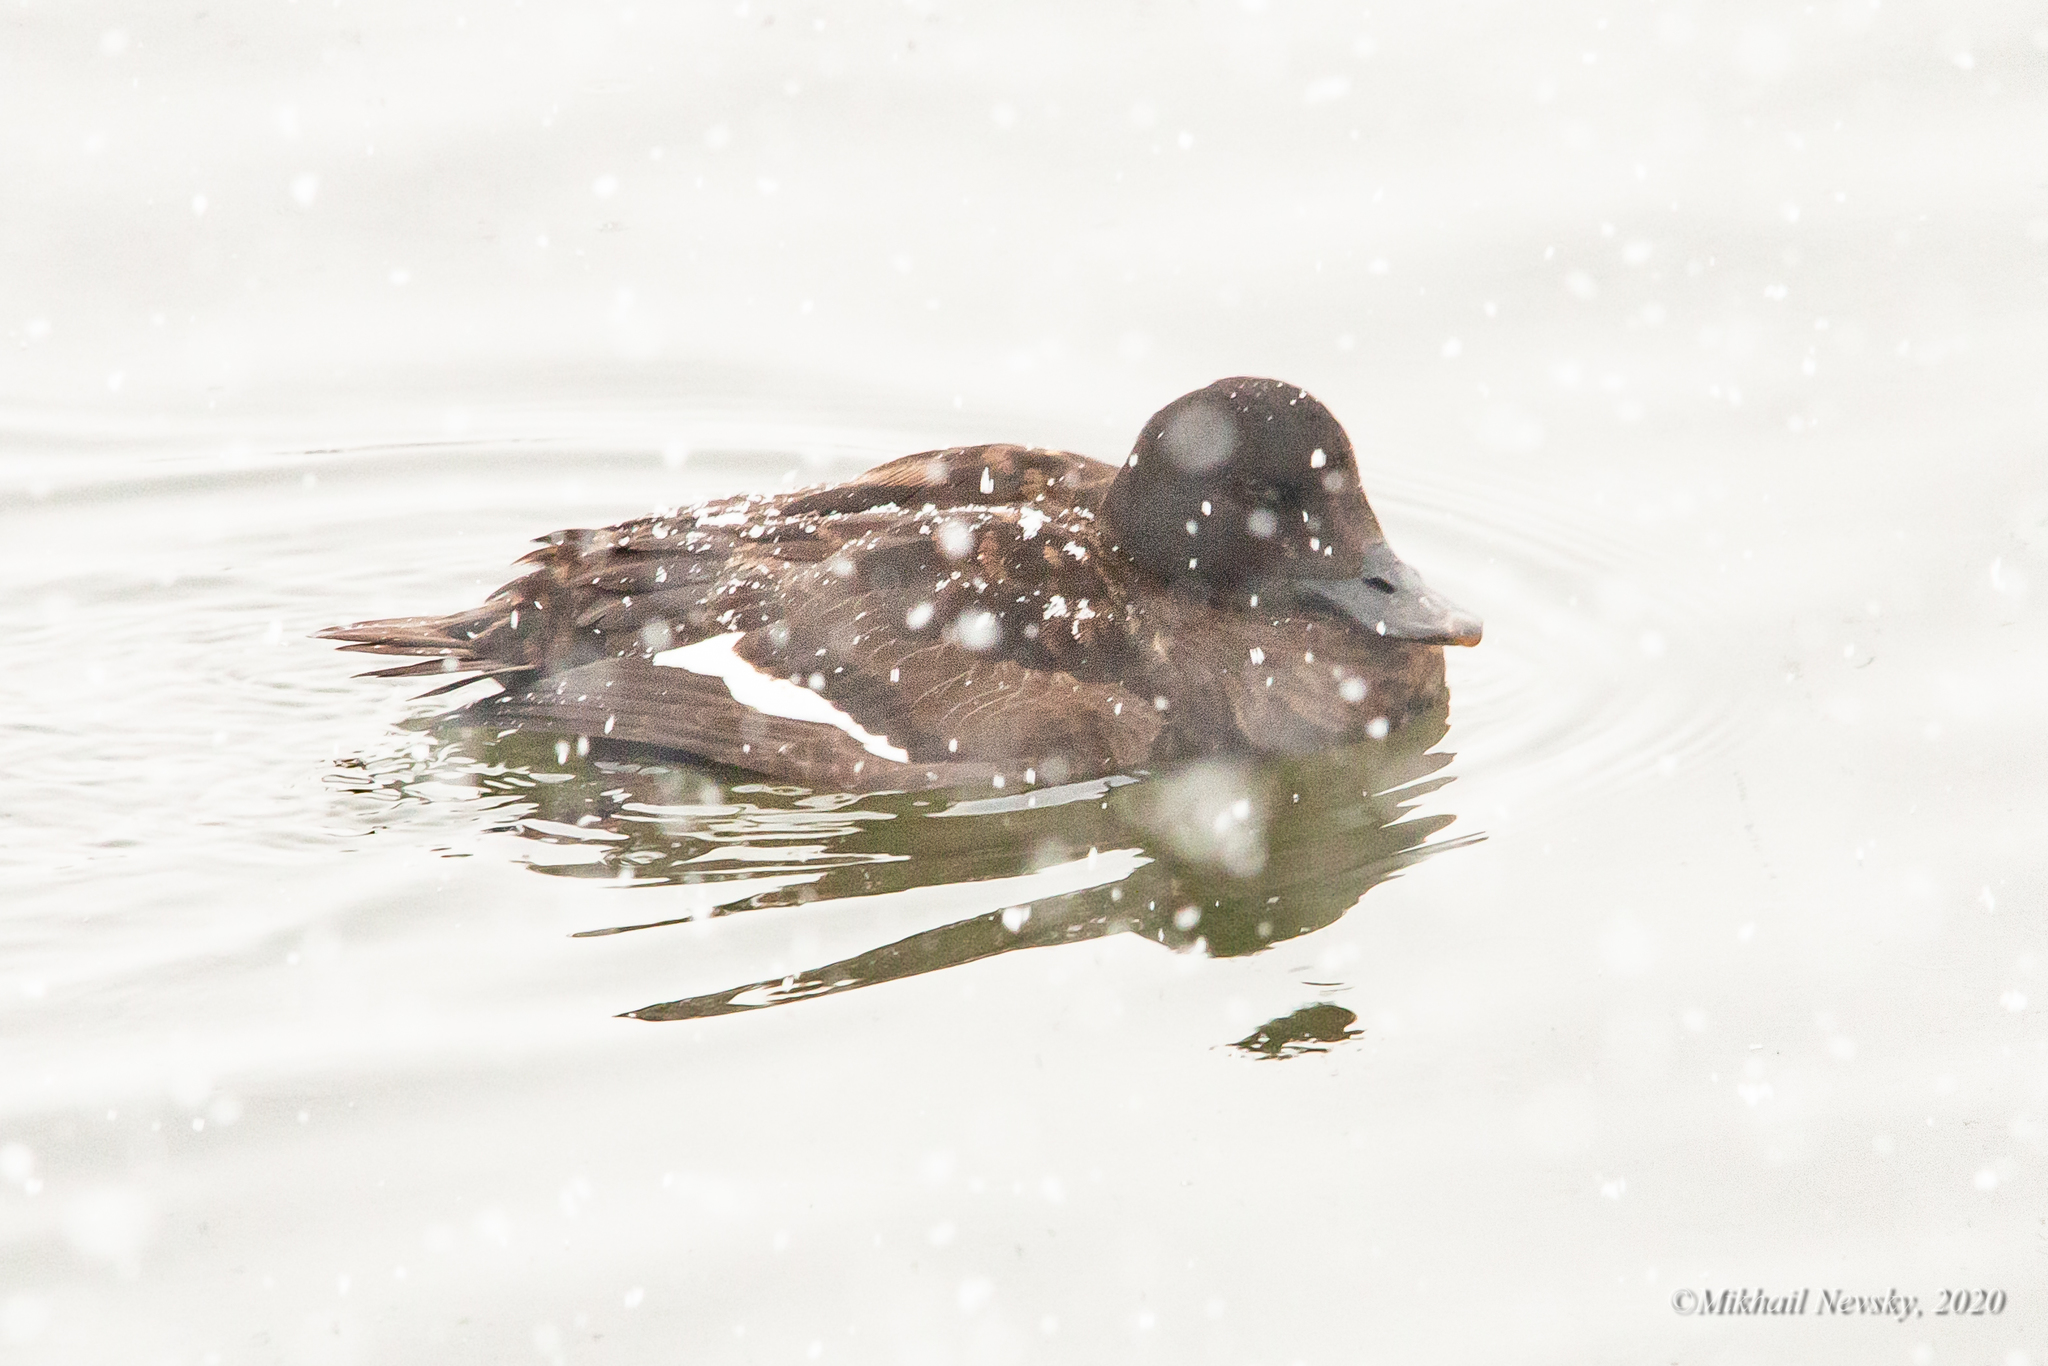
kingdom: Animalia
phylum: Chordata
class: Aves
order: Anseriformes
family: Anatidae
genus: Melanitta
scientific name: Melanitta fusca
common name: Velvet scoter
